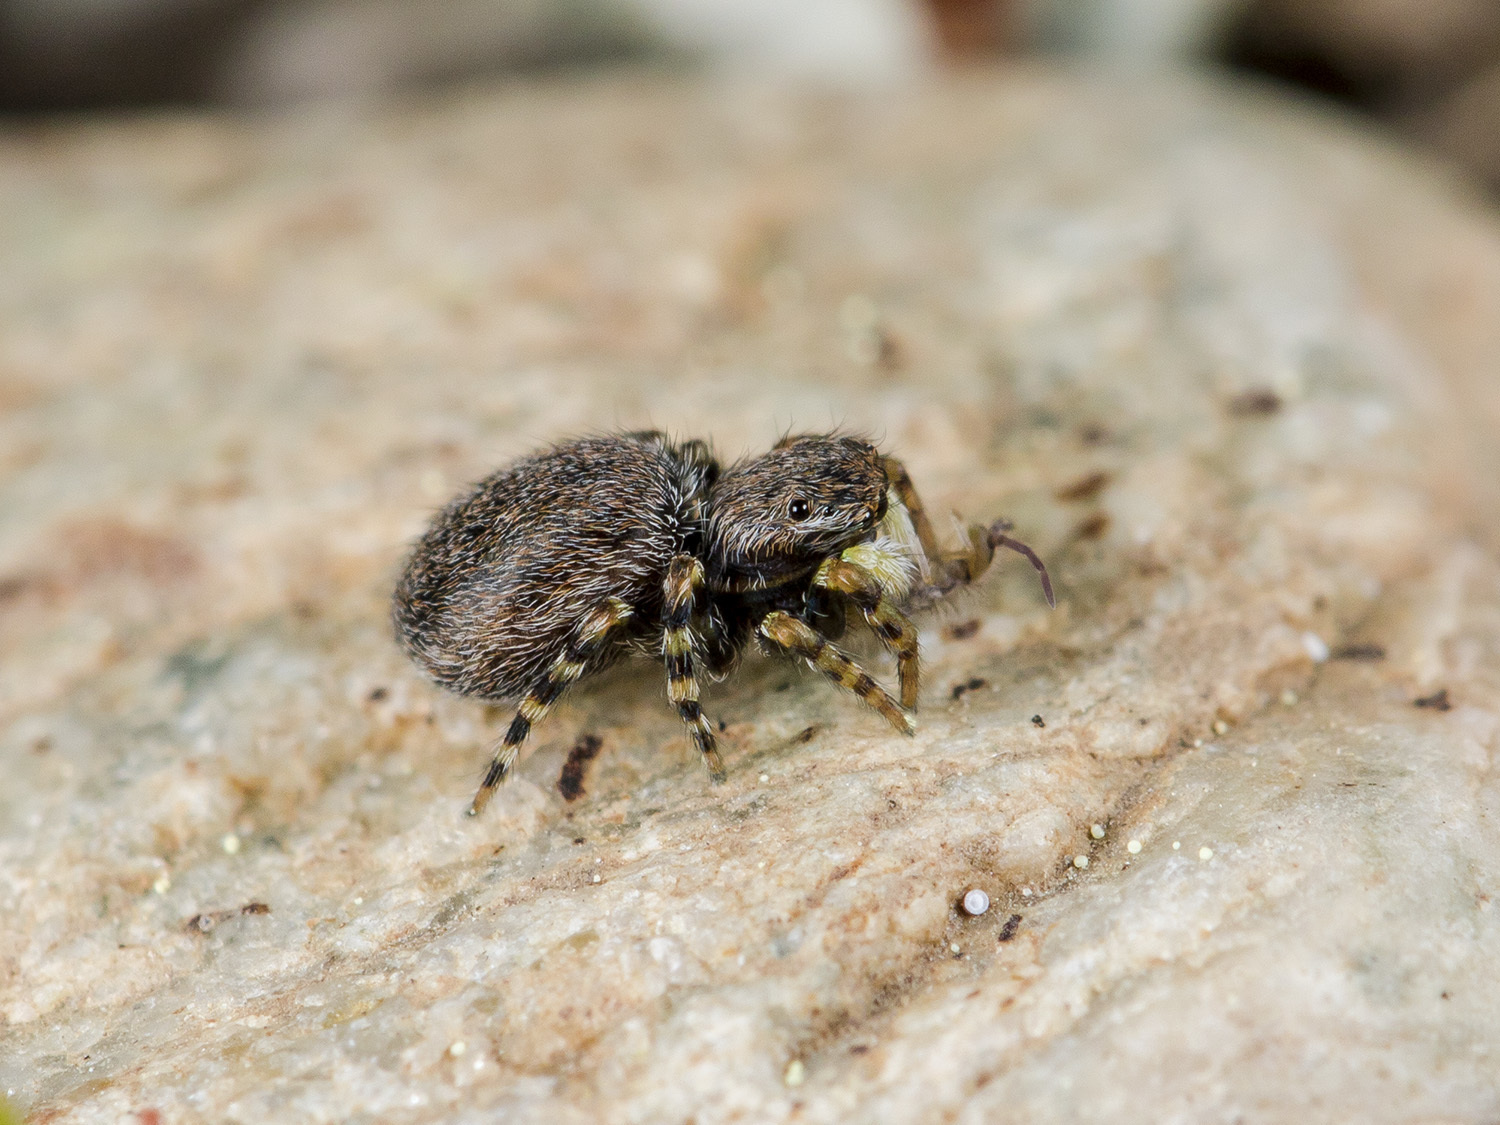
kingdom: Animalia
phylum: Arthropoda
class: Arachnida
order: Araneae
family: Salticidae
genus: Talavera
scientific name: Talavera petrensis
